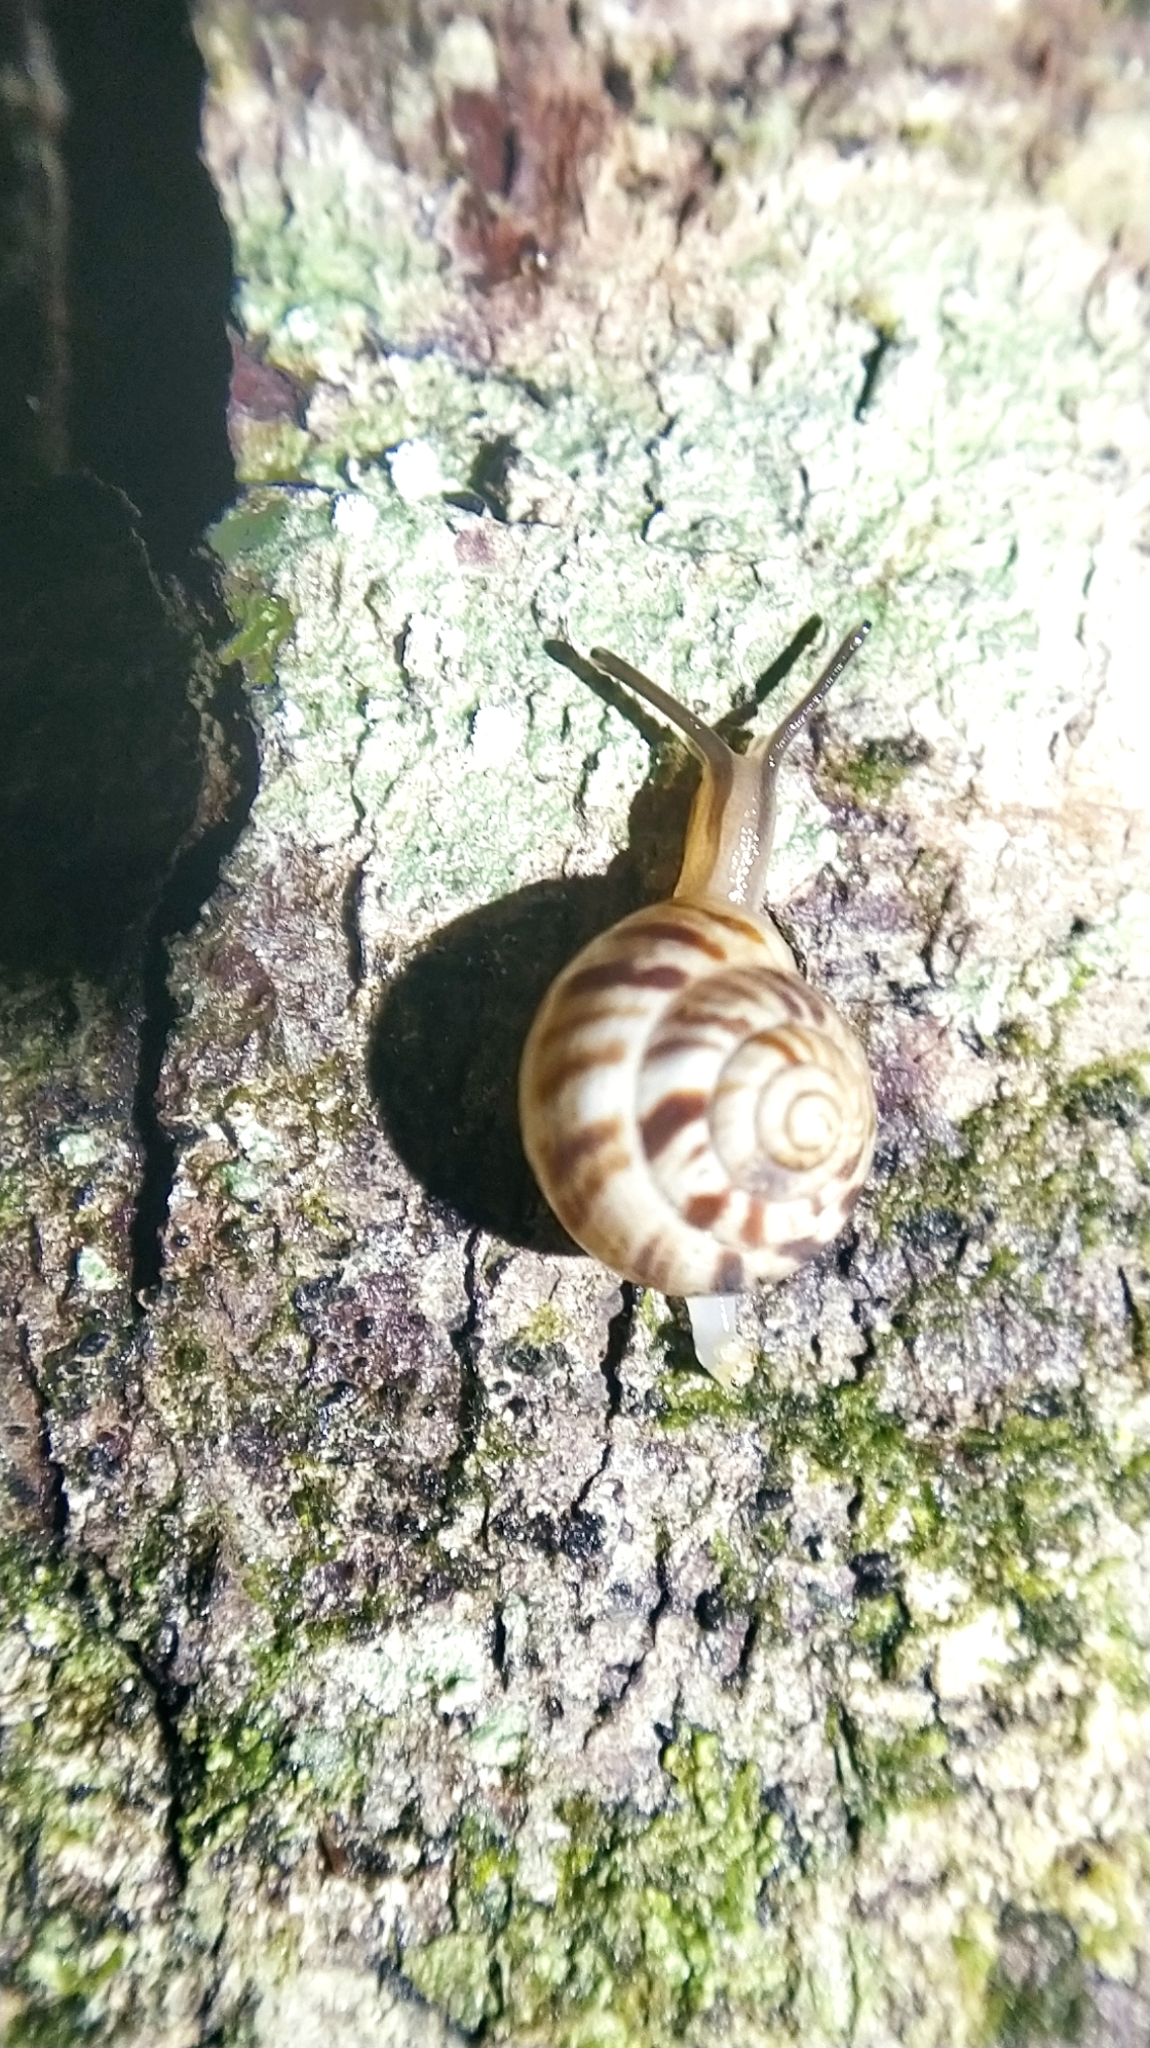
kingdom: Animalia
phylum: Mollusca
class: Gastropoda
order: Stylommatophora
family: Charopidae
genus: Serpho
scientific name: Serpho
